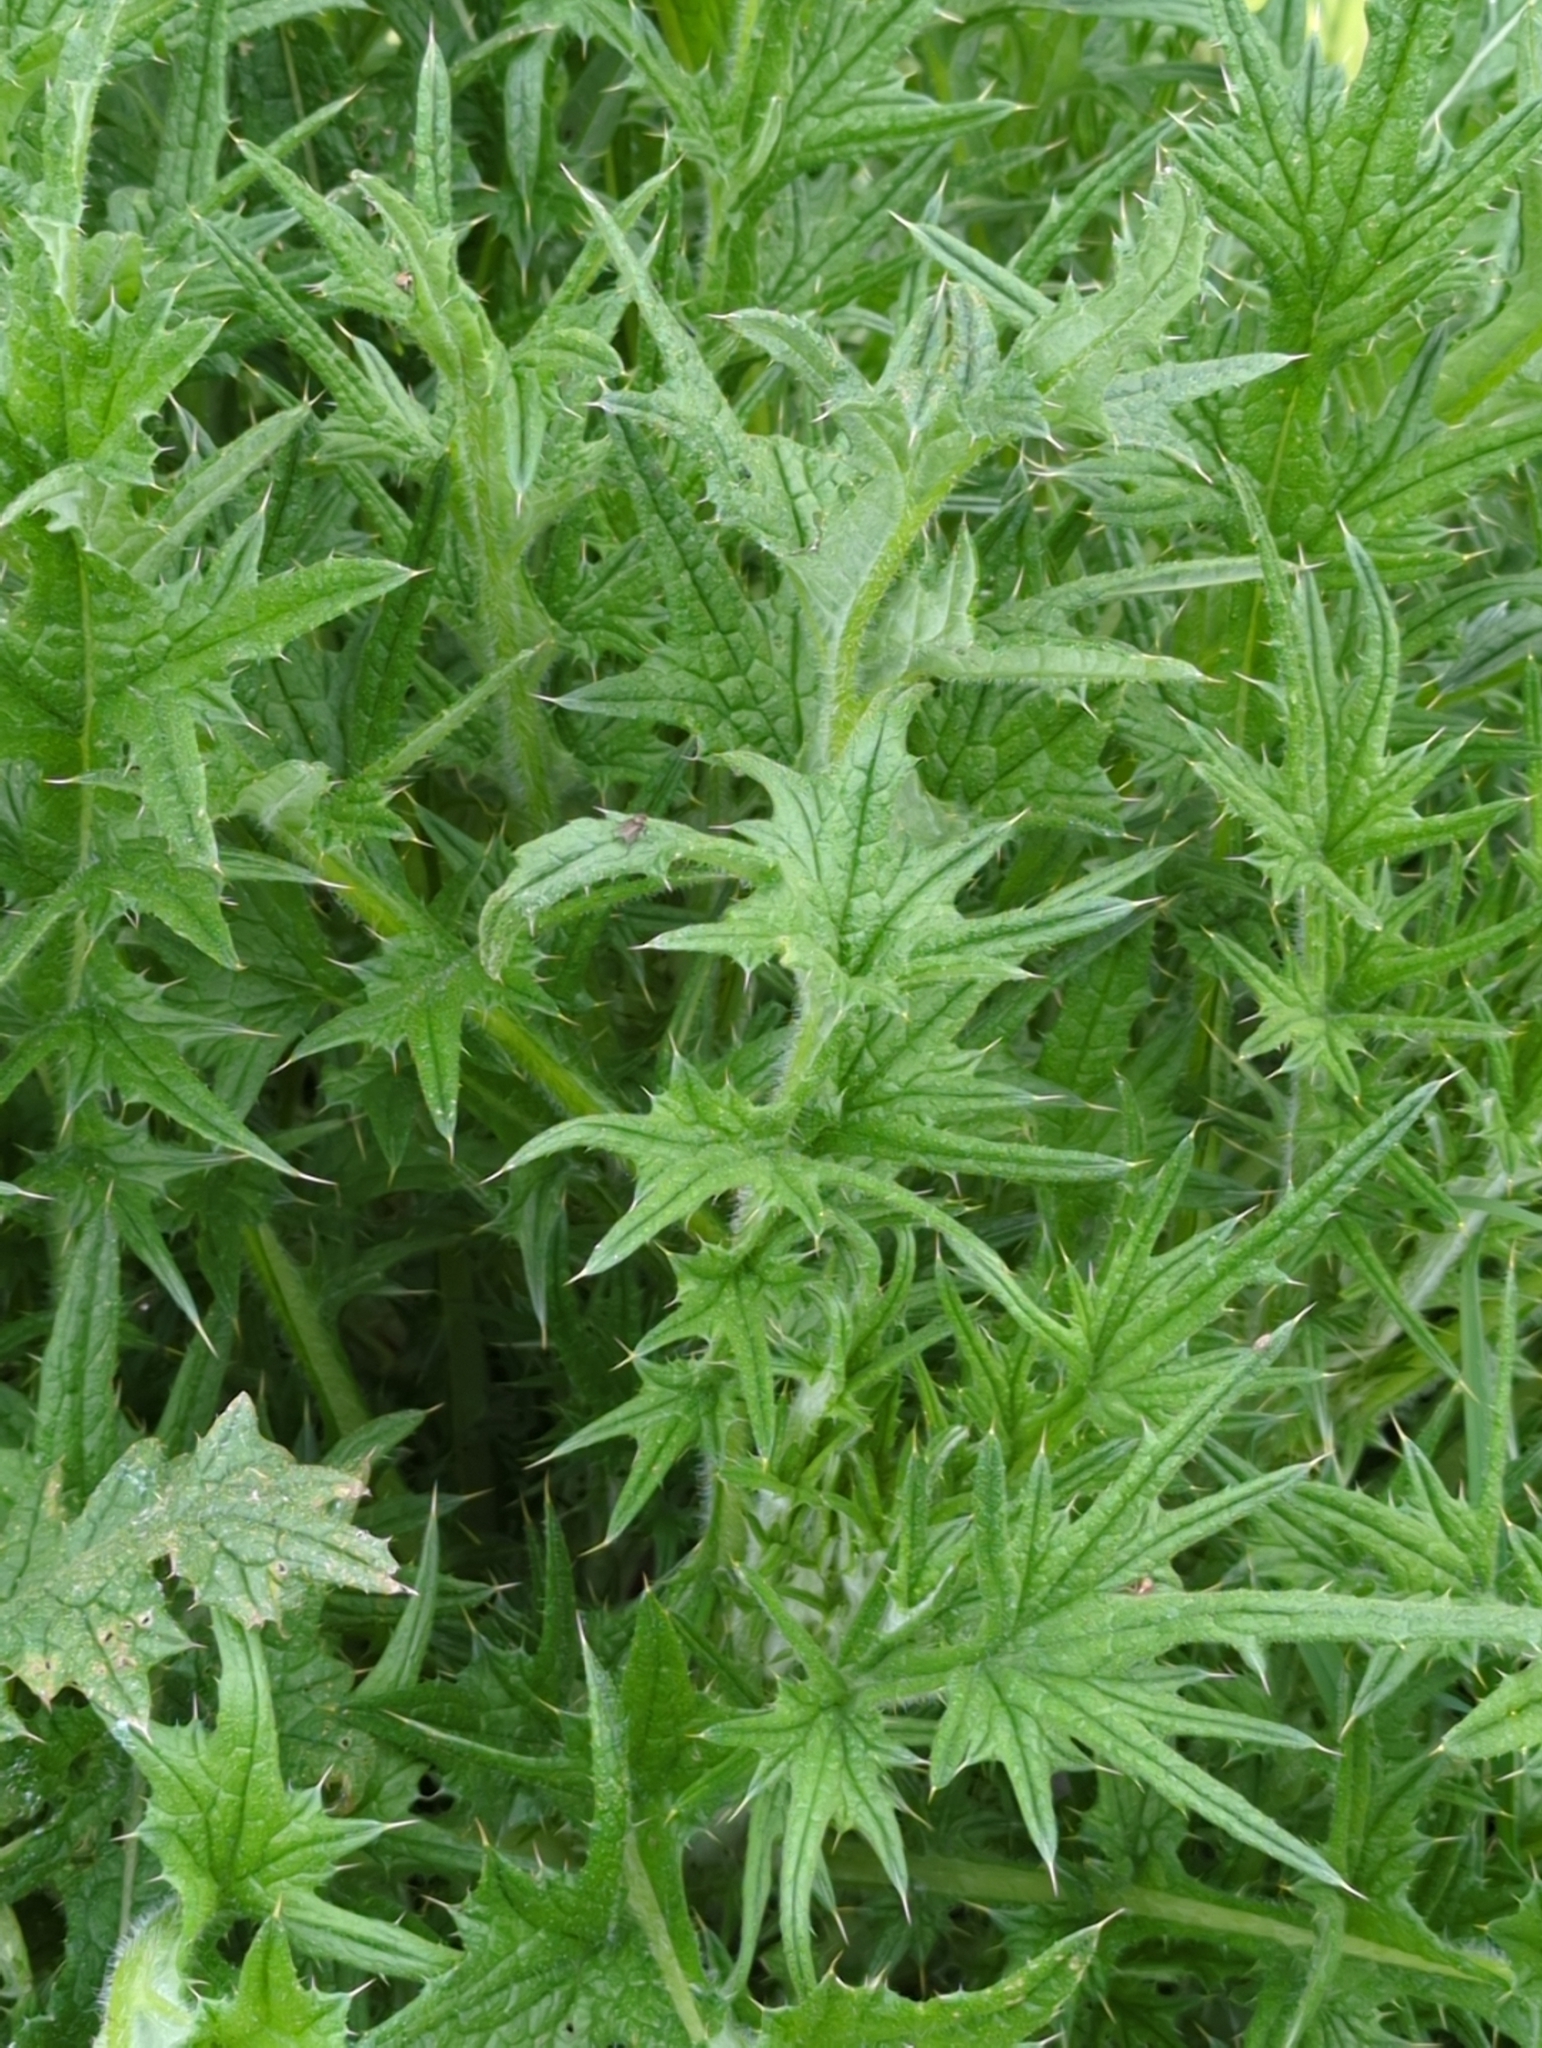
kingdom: Plantae
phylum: Tracheophyta
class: Magnoliopsida
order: Asterales
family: Asteraceae
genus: Cirsium
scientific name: Cirsium vulgare
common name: Bull thistle
